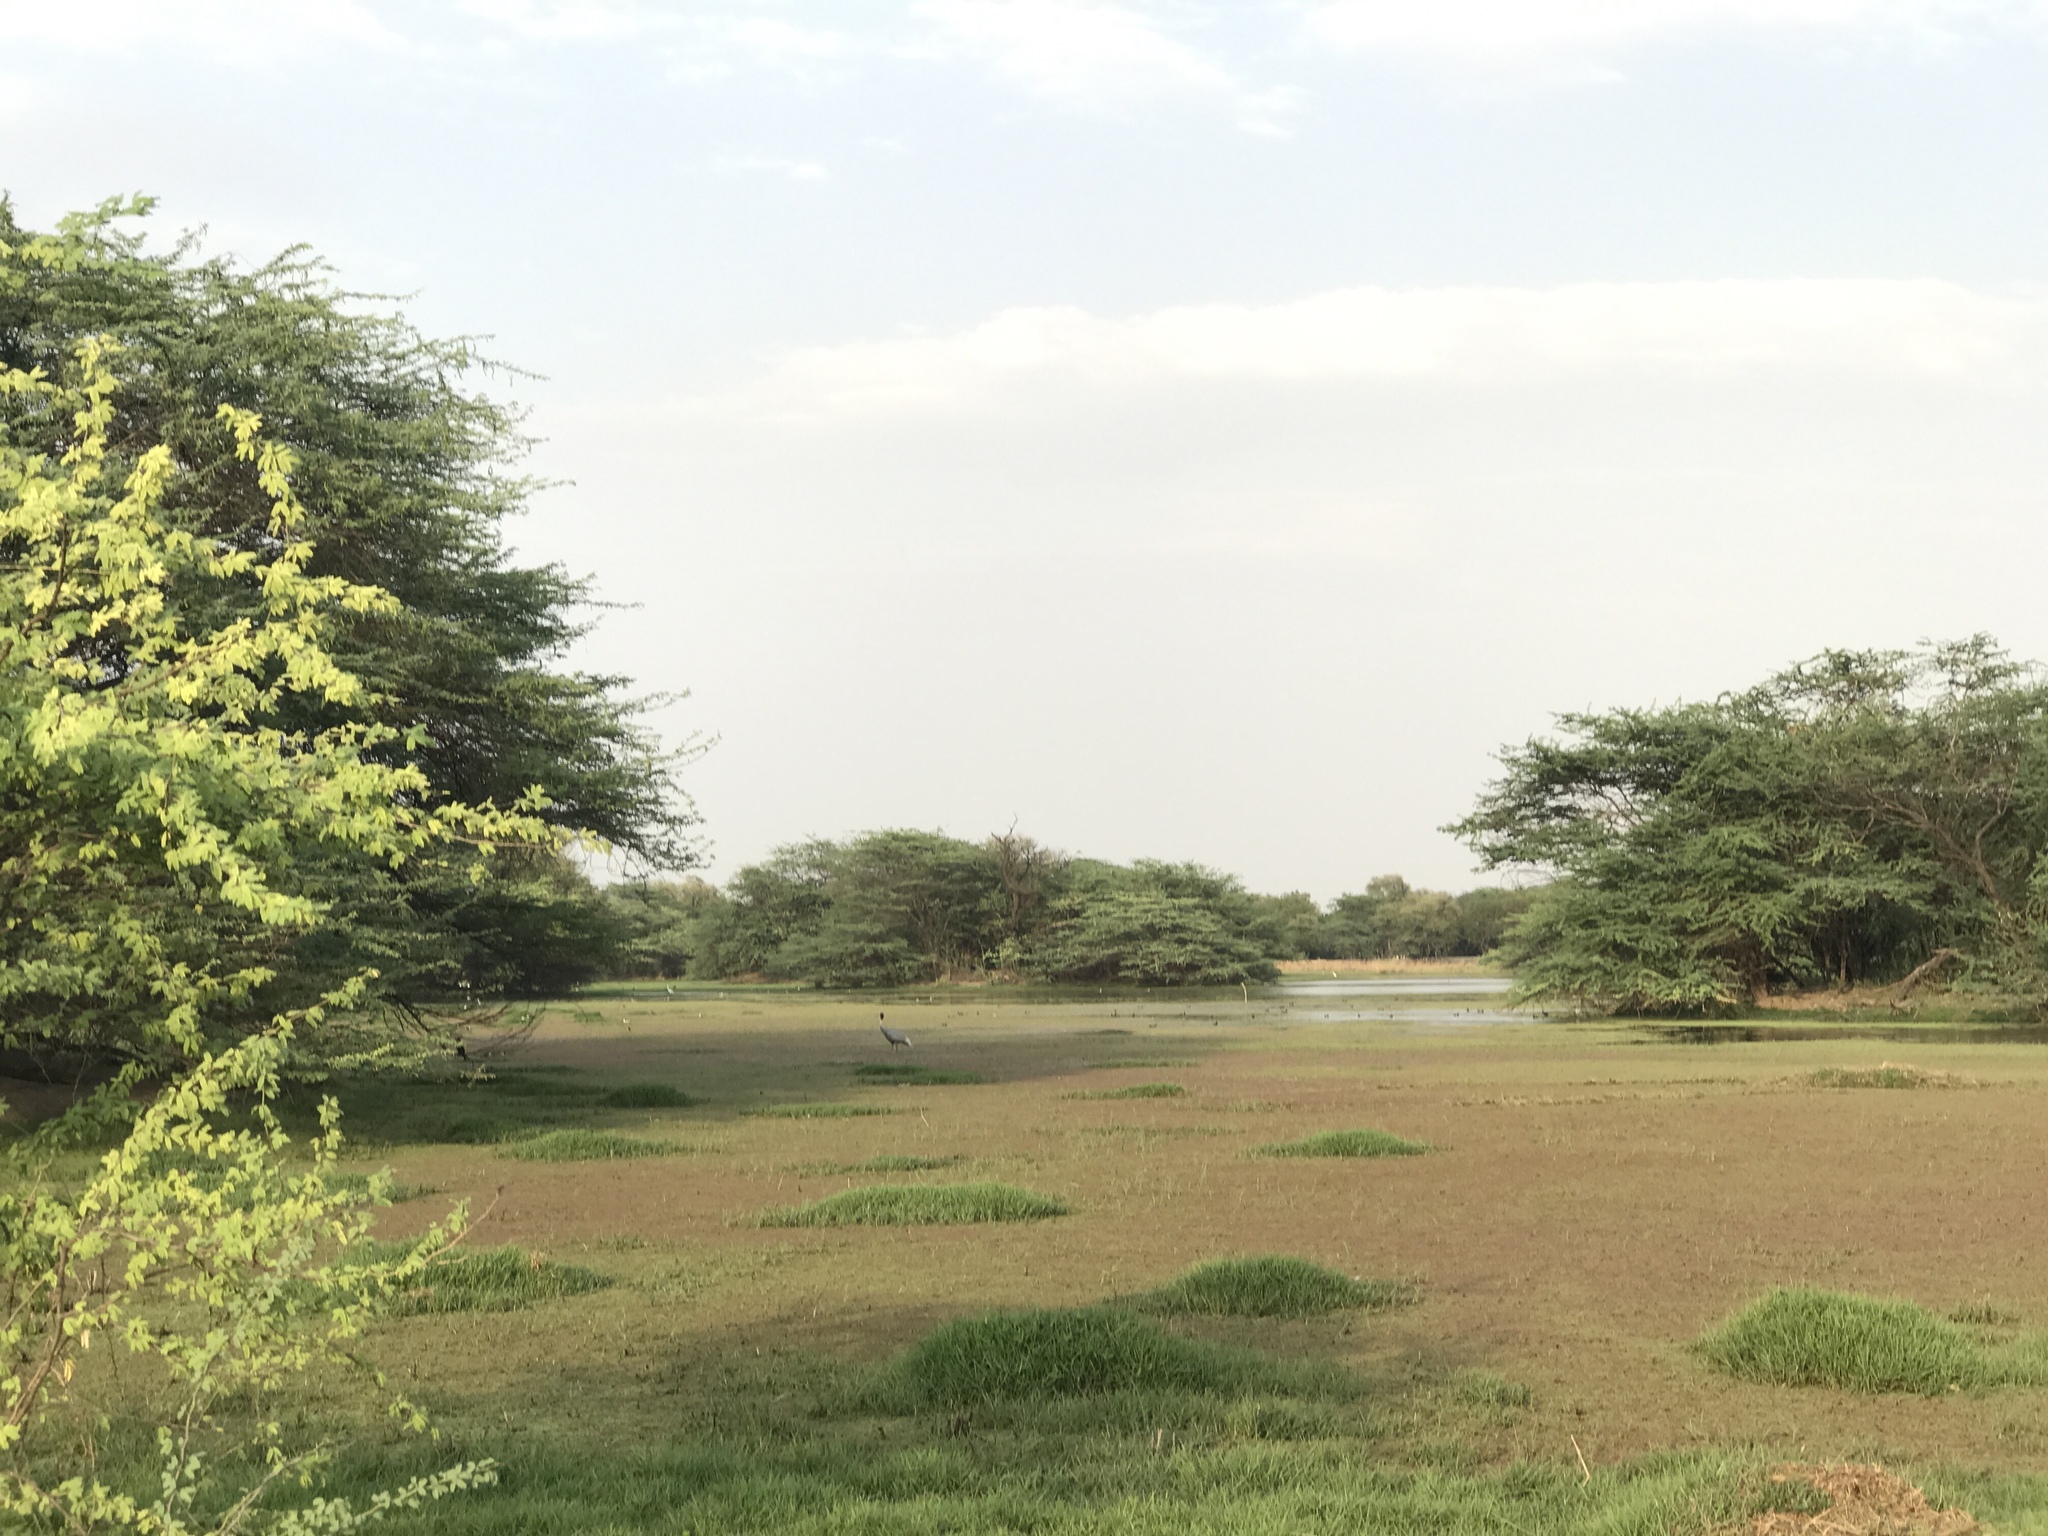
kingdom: Animalia
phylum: Chordata
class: Aves
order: Gruiformes
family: Gruidae
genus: Grus
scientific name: Grus antigone
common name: Sarus crane
